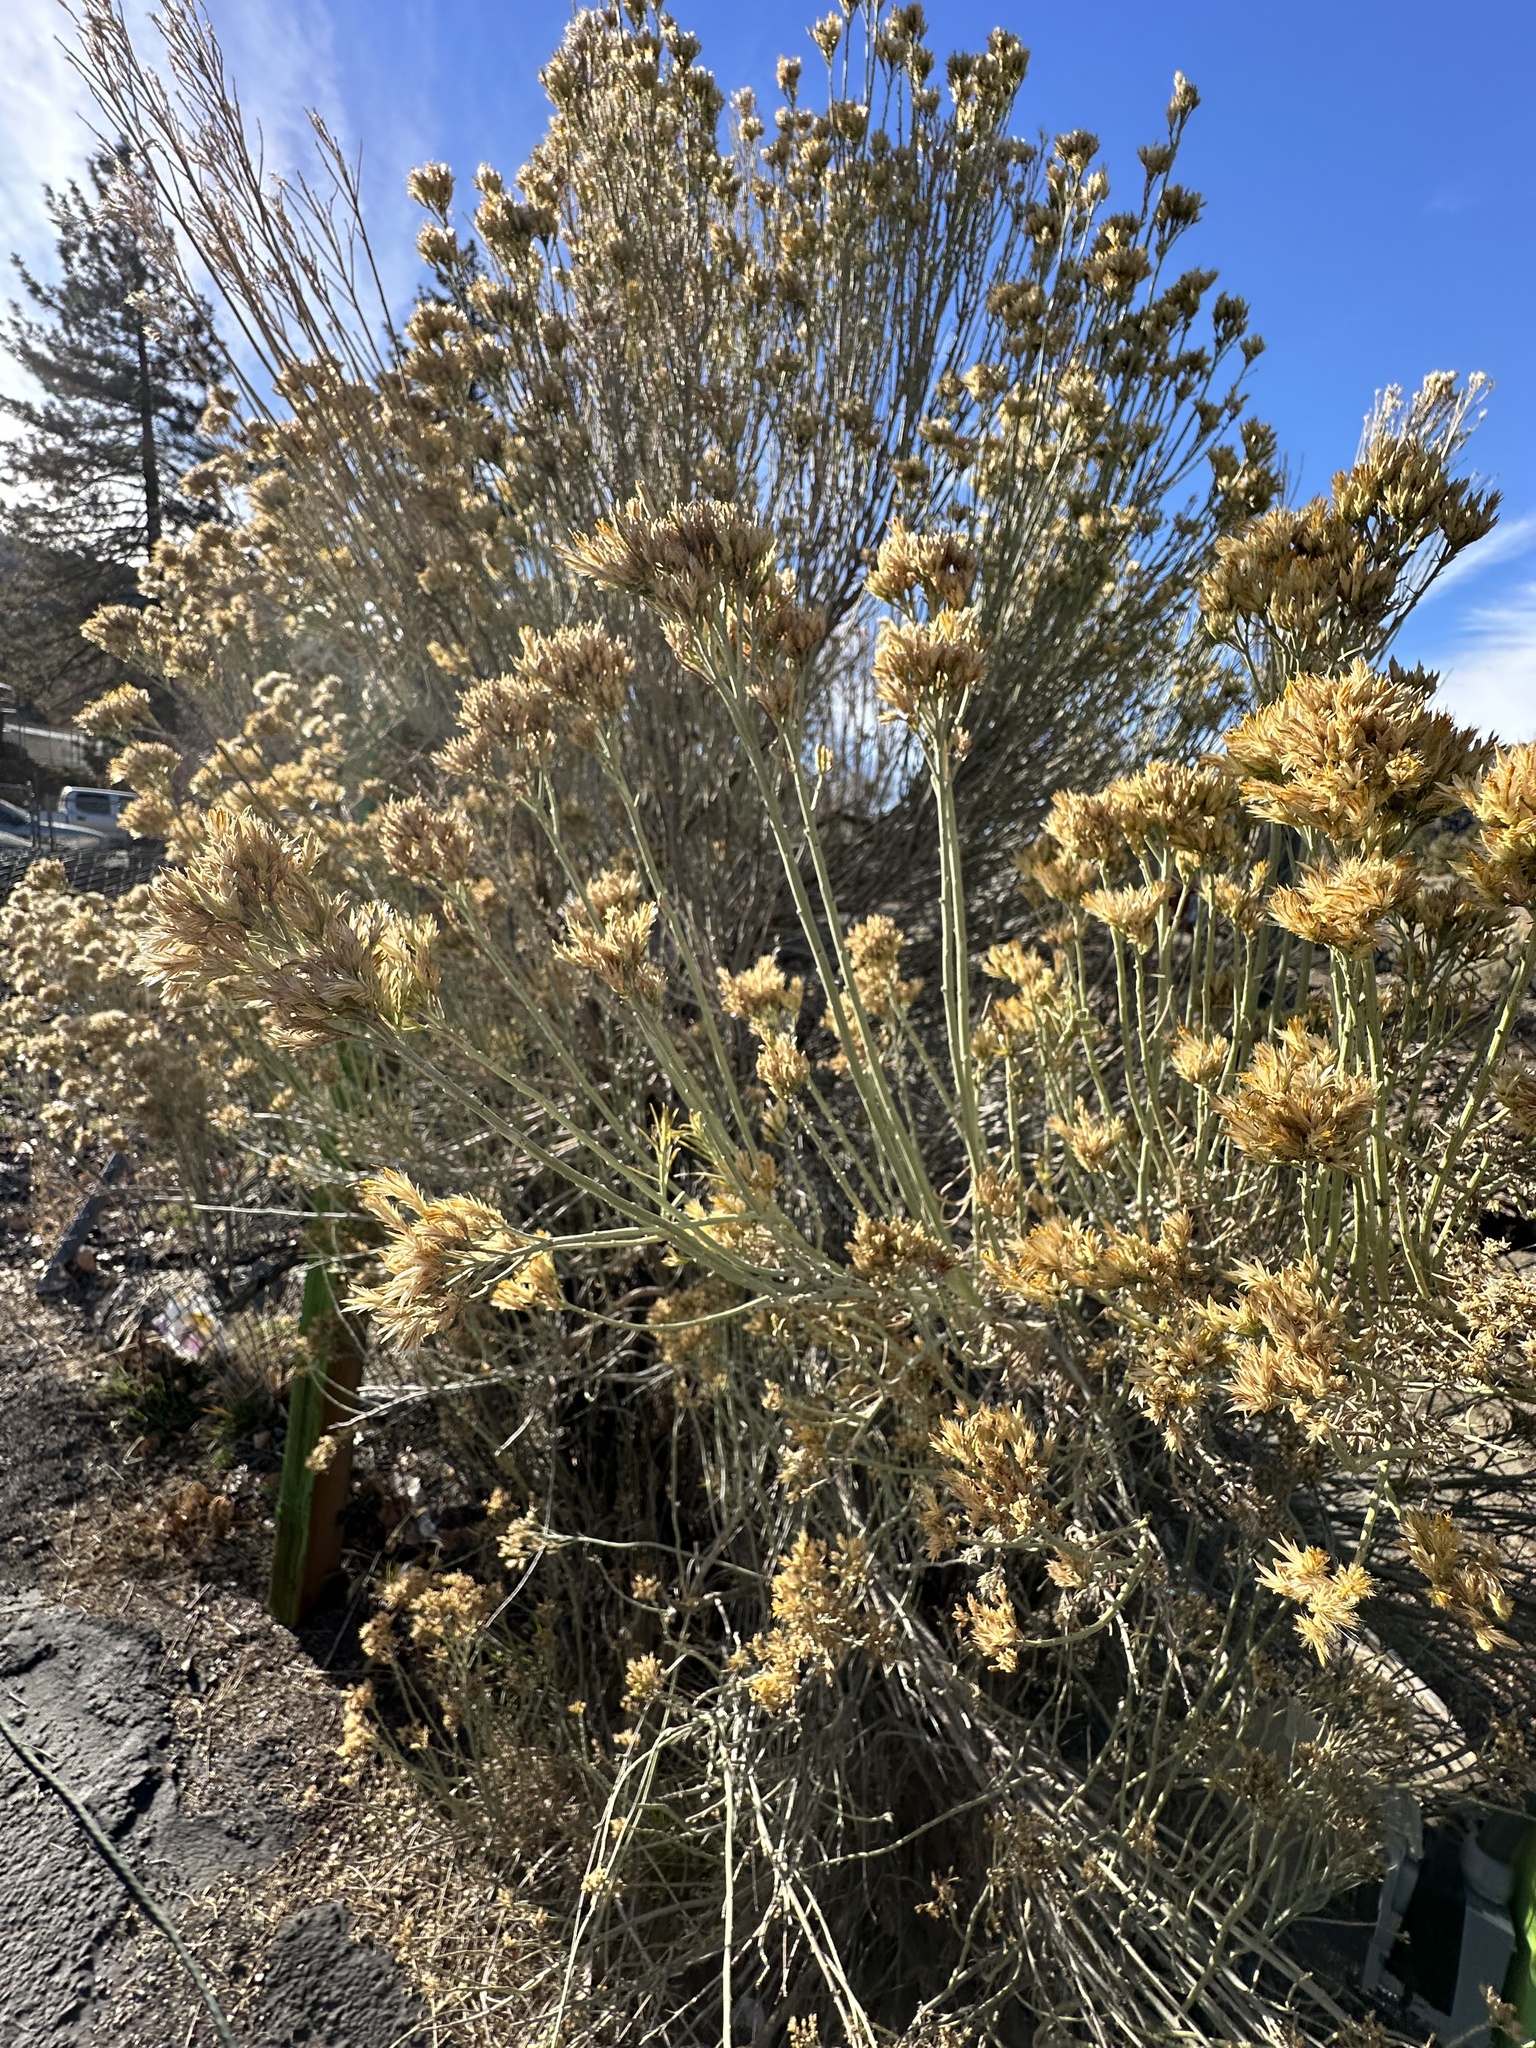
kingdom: Plantae
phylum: Tracheophyta
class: Magnoliopsida
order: Asterales
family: Asteraceae
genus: Ericameria
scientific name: Ericameria nauseosa
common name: Rubber rabbitbrush
